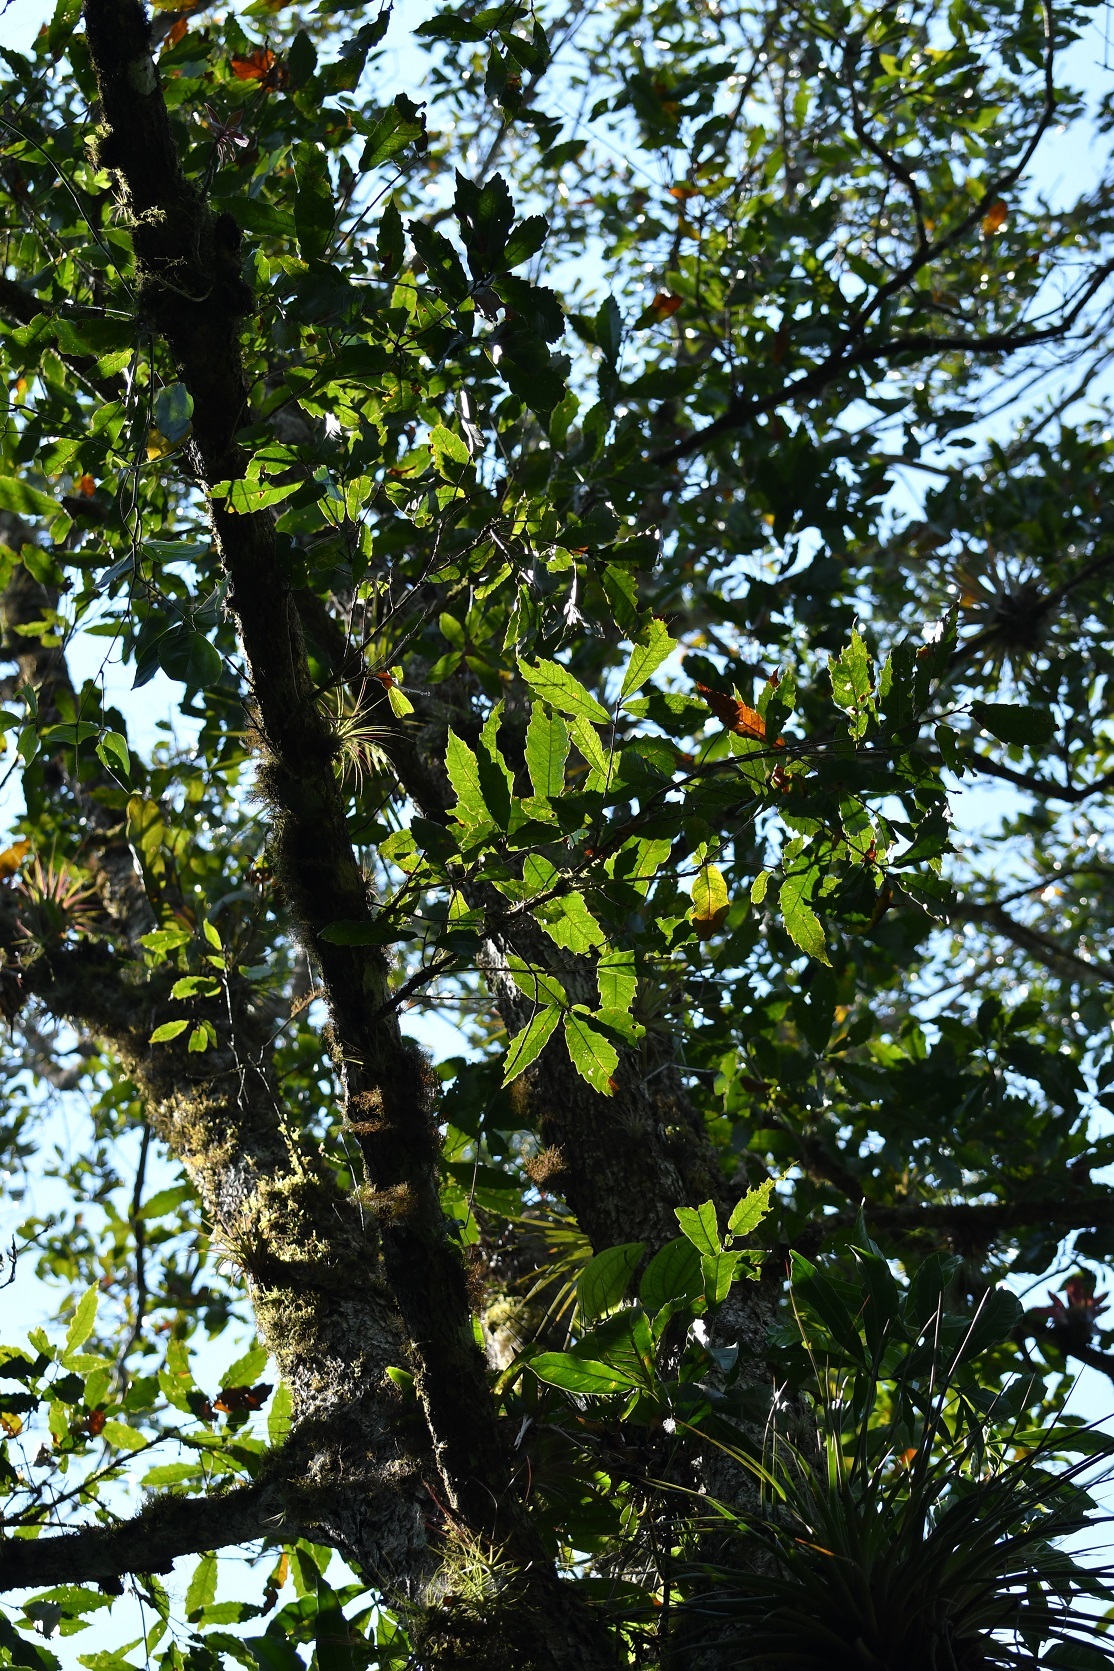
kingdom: Plantae
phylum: Tracheophyta
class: Magnoliopsida
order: Fagales
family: Fagaceae
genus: Quercus
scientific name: Quercus lancifolia
